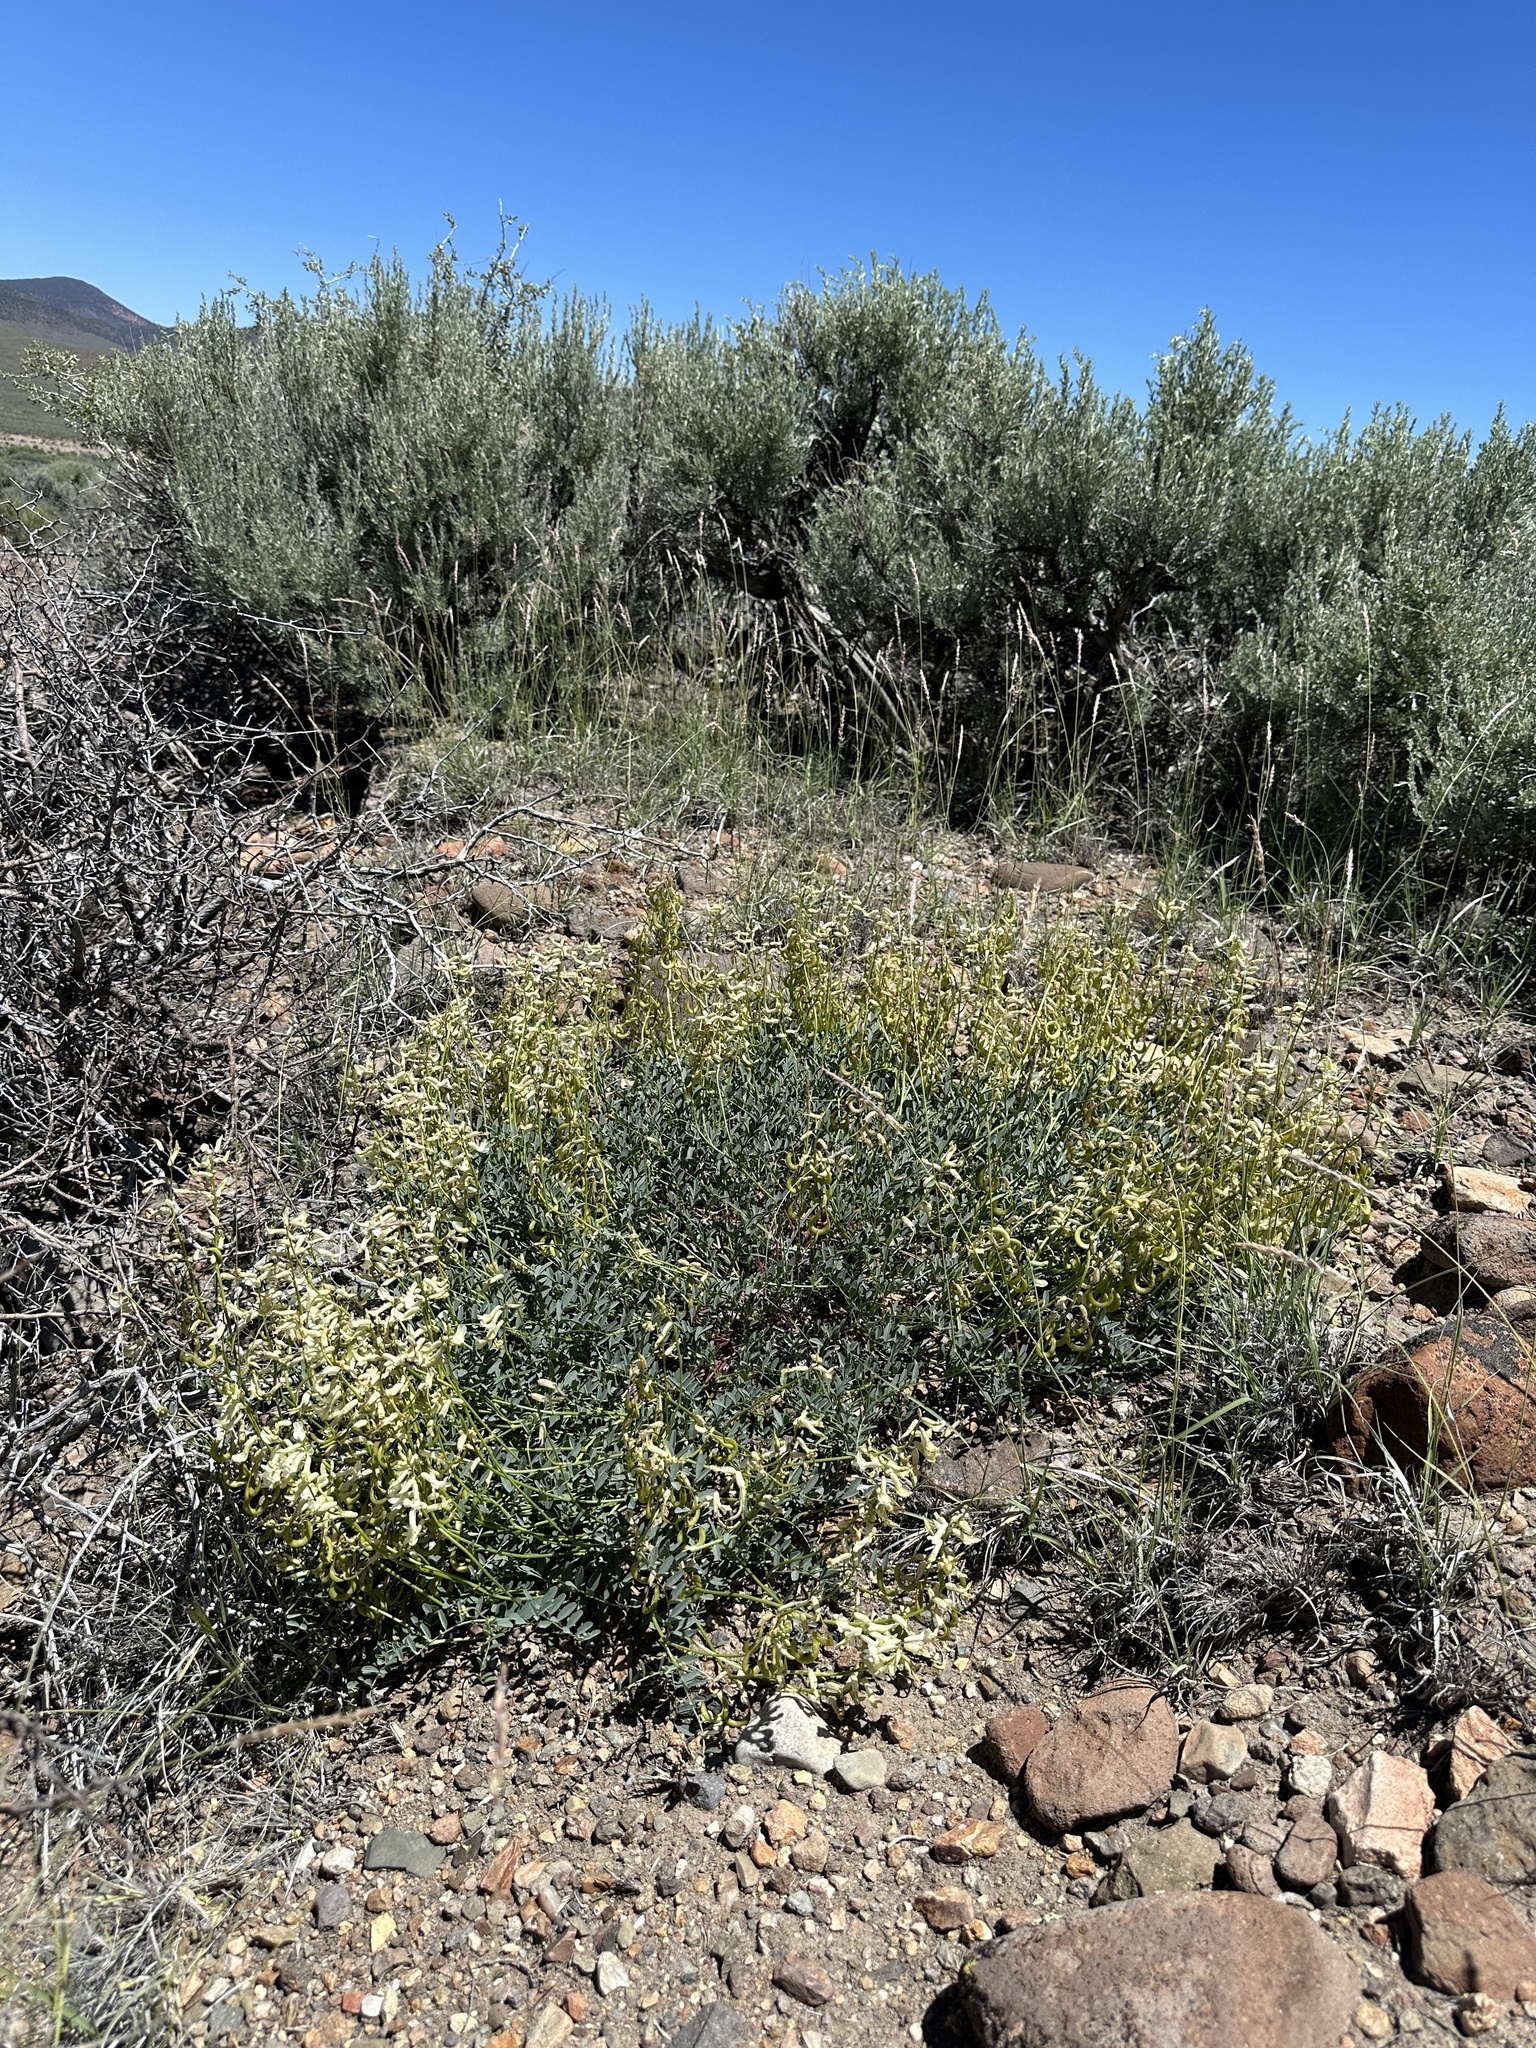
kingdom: Plantae
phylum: Tracheophyta
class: Magnoliopsida
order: Fabales
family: Fabaceae
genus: Astragalus
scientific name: Astragalus curvicarpus
